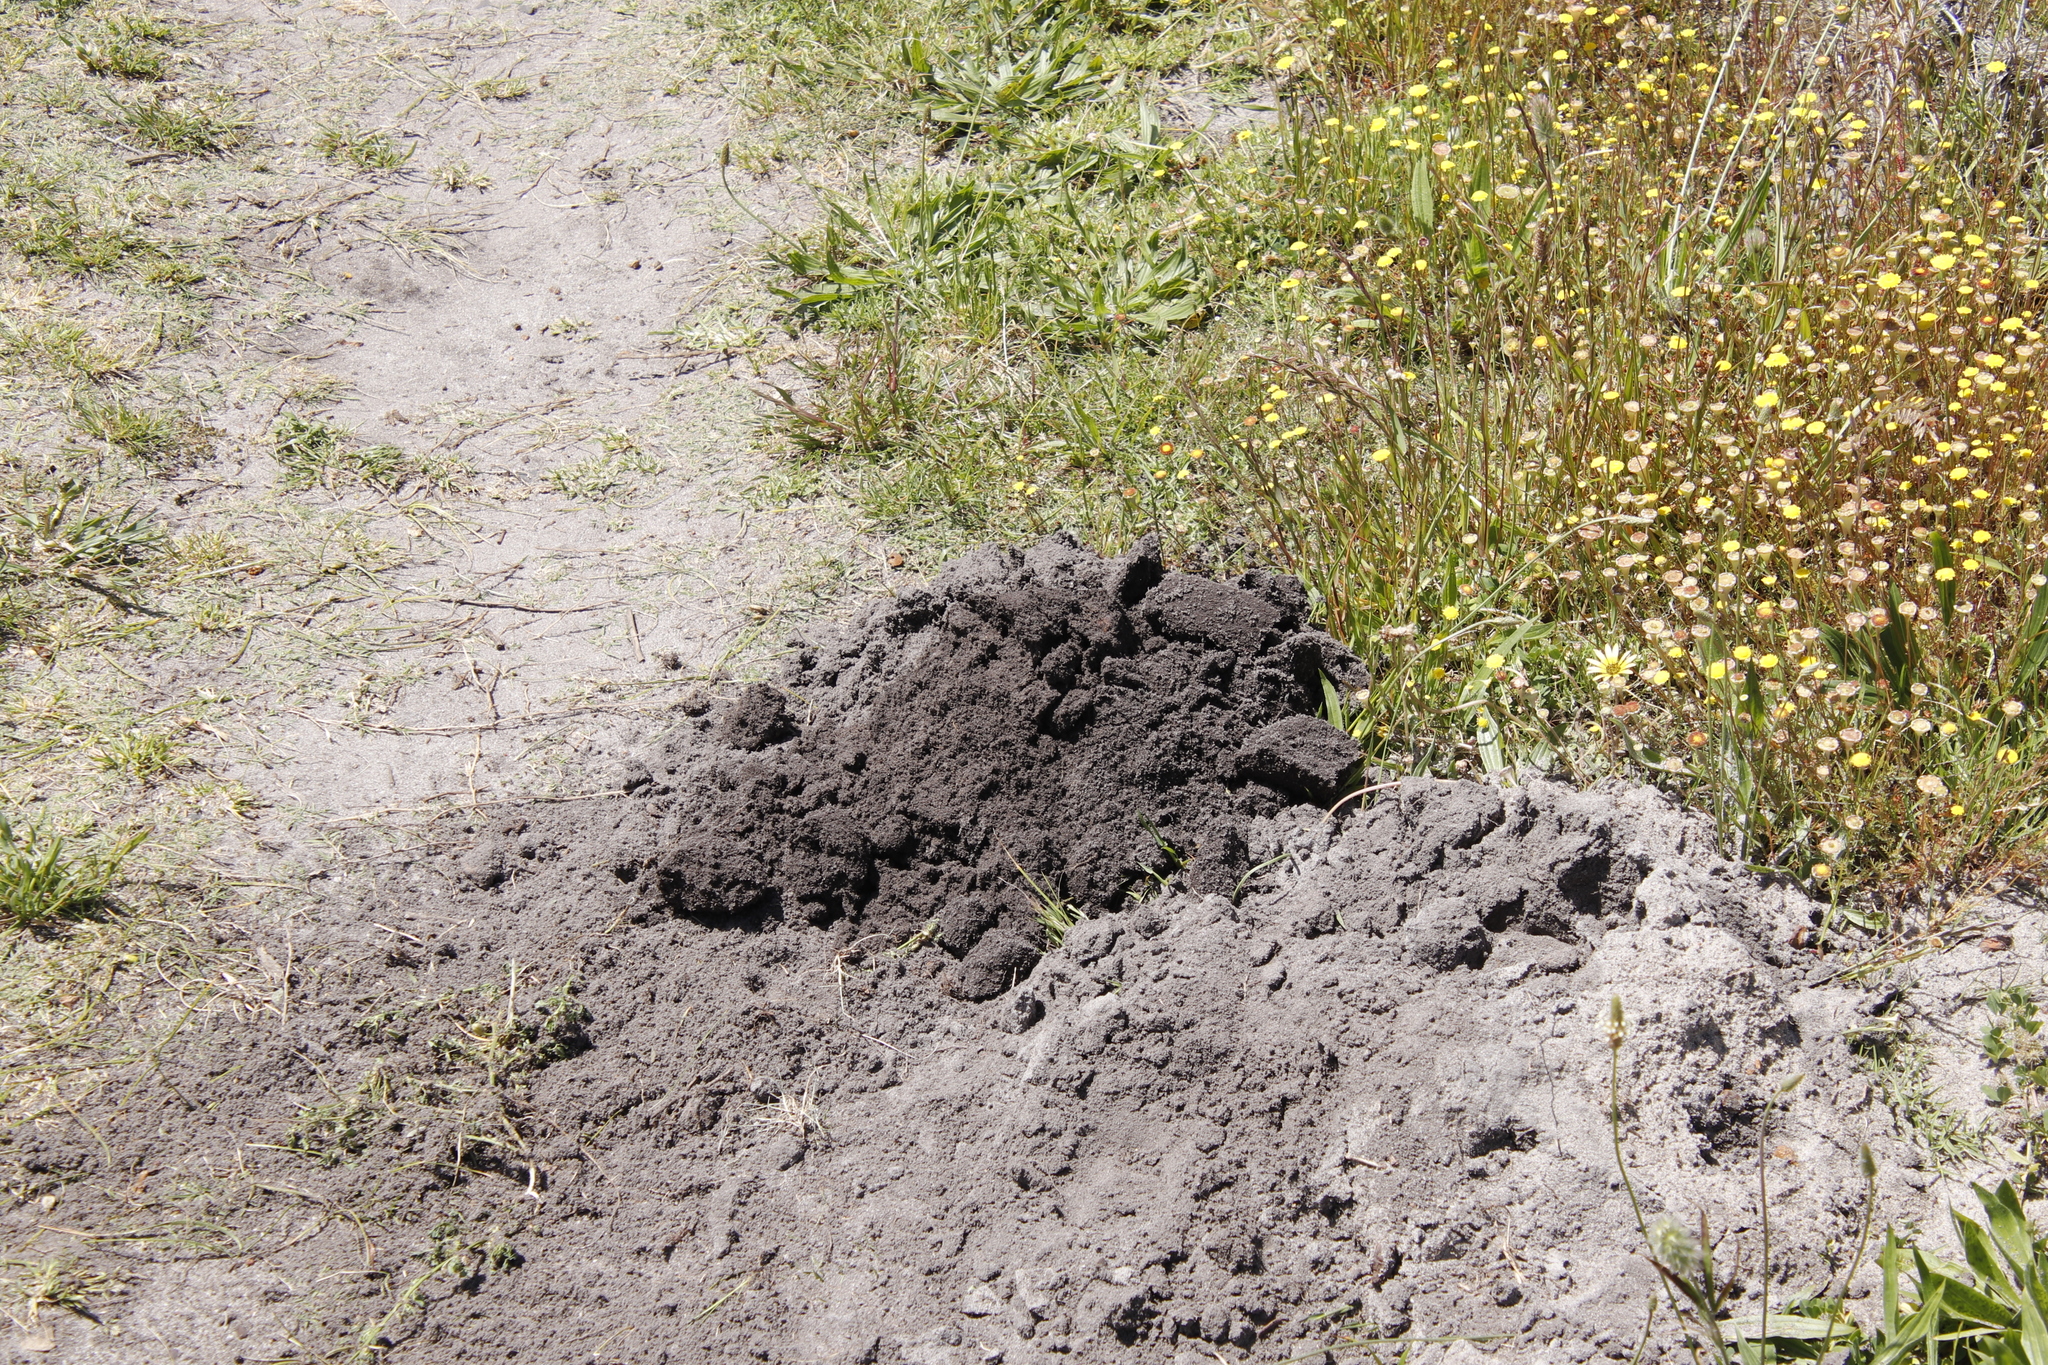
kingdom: Animalia
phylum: Chordata
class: Mammalia
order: Rodentia
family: Bathyergidae
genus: Bathyergus
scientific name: Bathyergus suillus
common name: Cape dune mole rat
